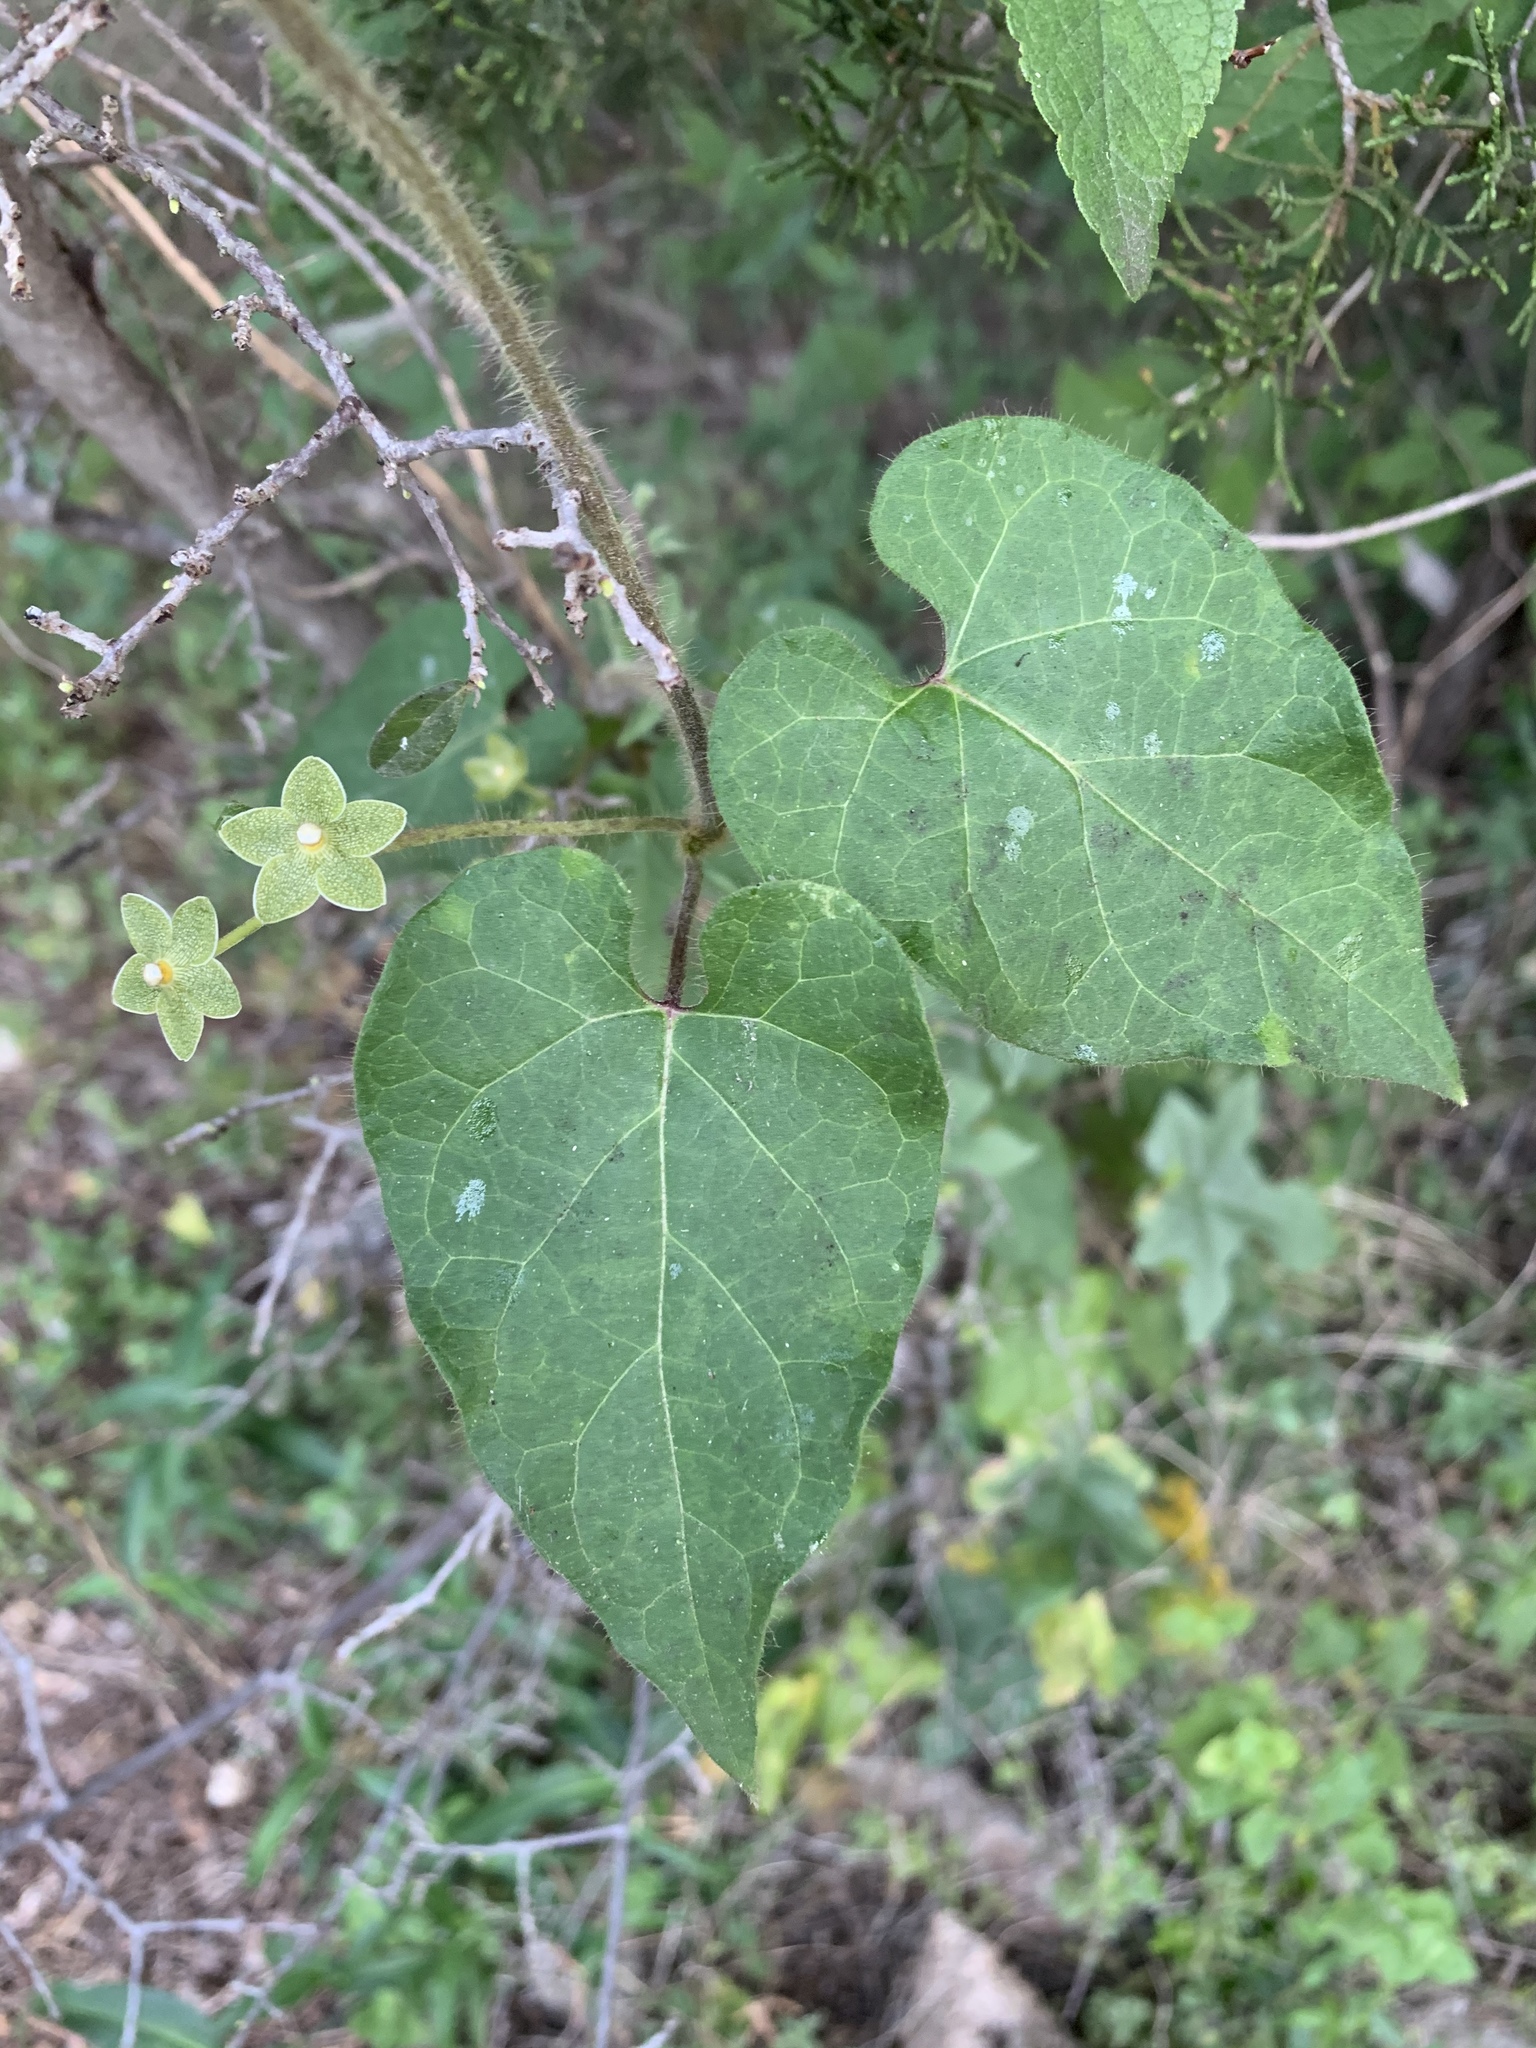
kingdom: Plantae
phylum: Tracheophyta
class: Magnoliopsida
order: Gentianales
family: Apocynaceae
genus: Dictyanthus
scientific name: Dictyanthus reticulatus
